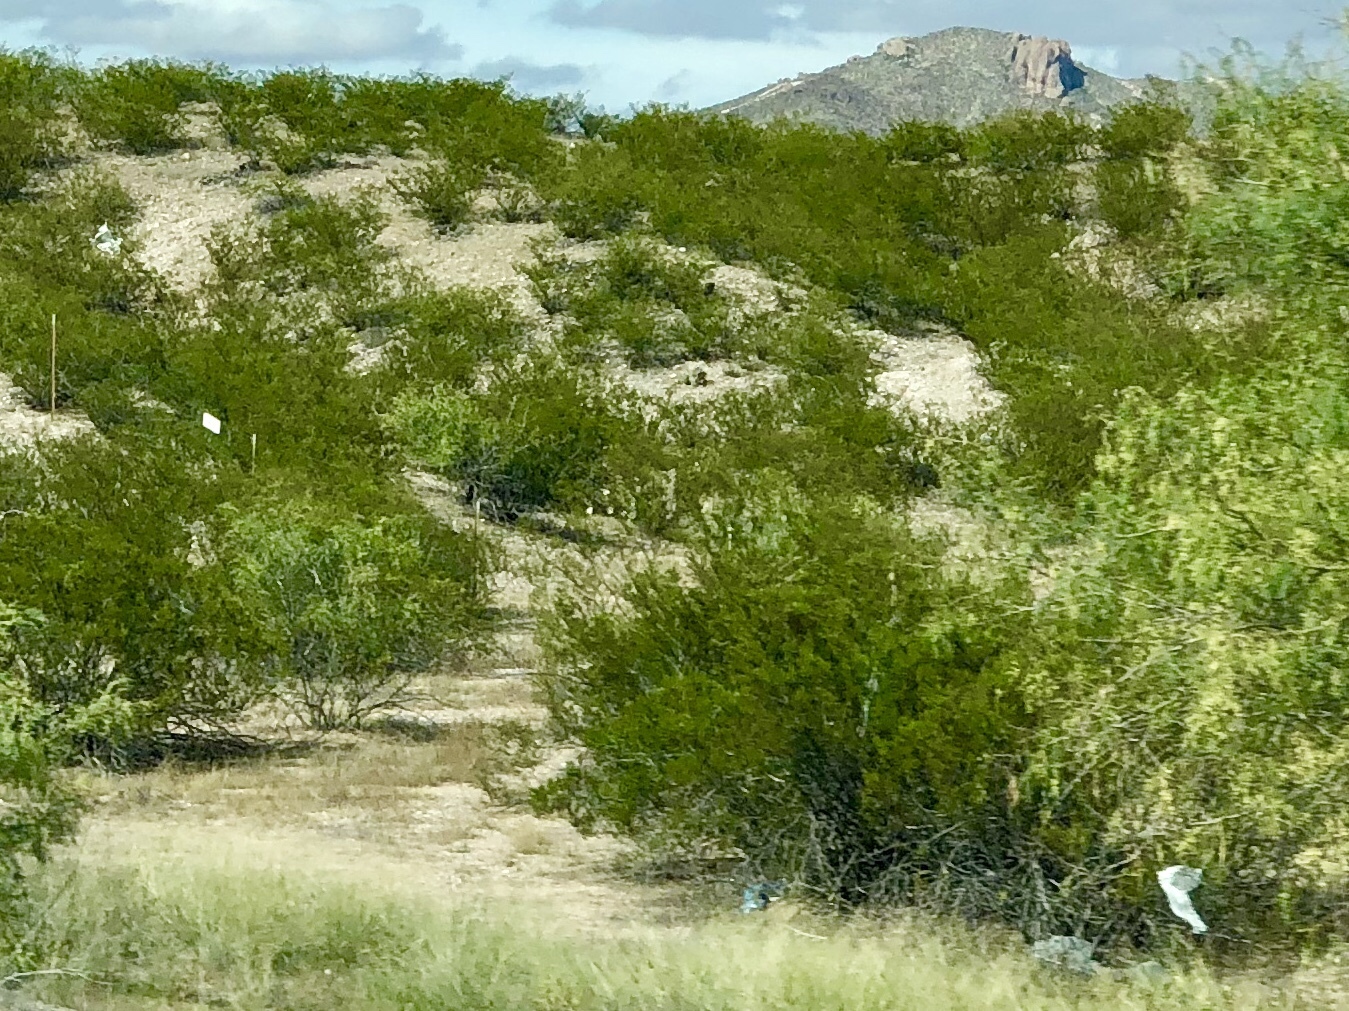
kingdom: Plantae
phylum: Tracheophyta
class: Magnoliopsida
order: Zygophyllales
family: Zygophyllaceae
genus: Larrea
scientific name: Larrea tridentata
